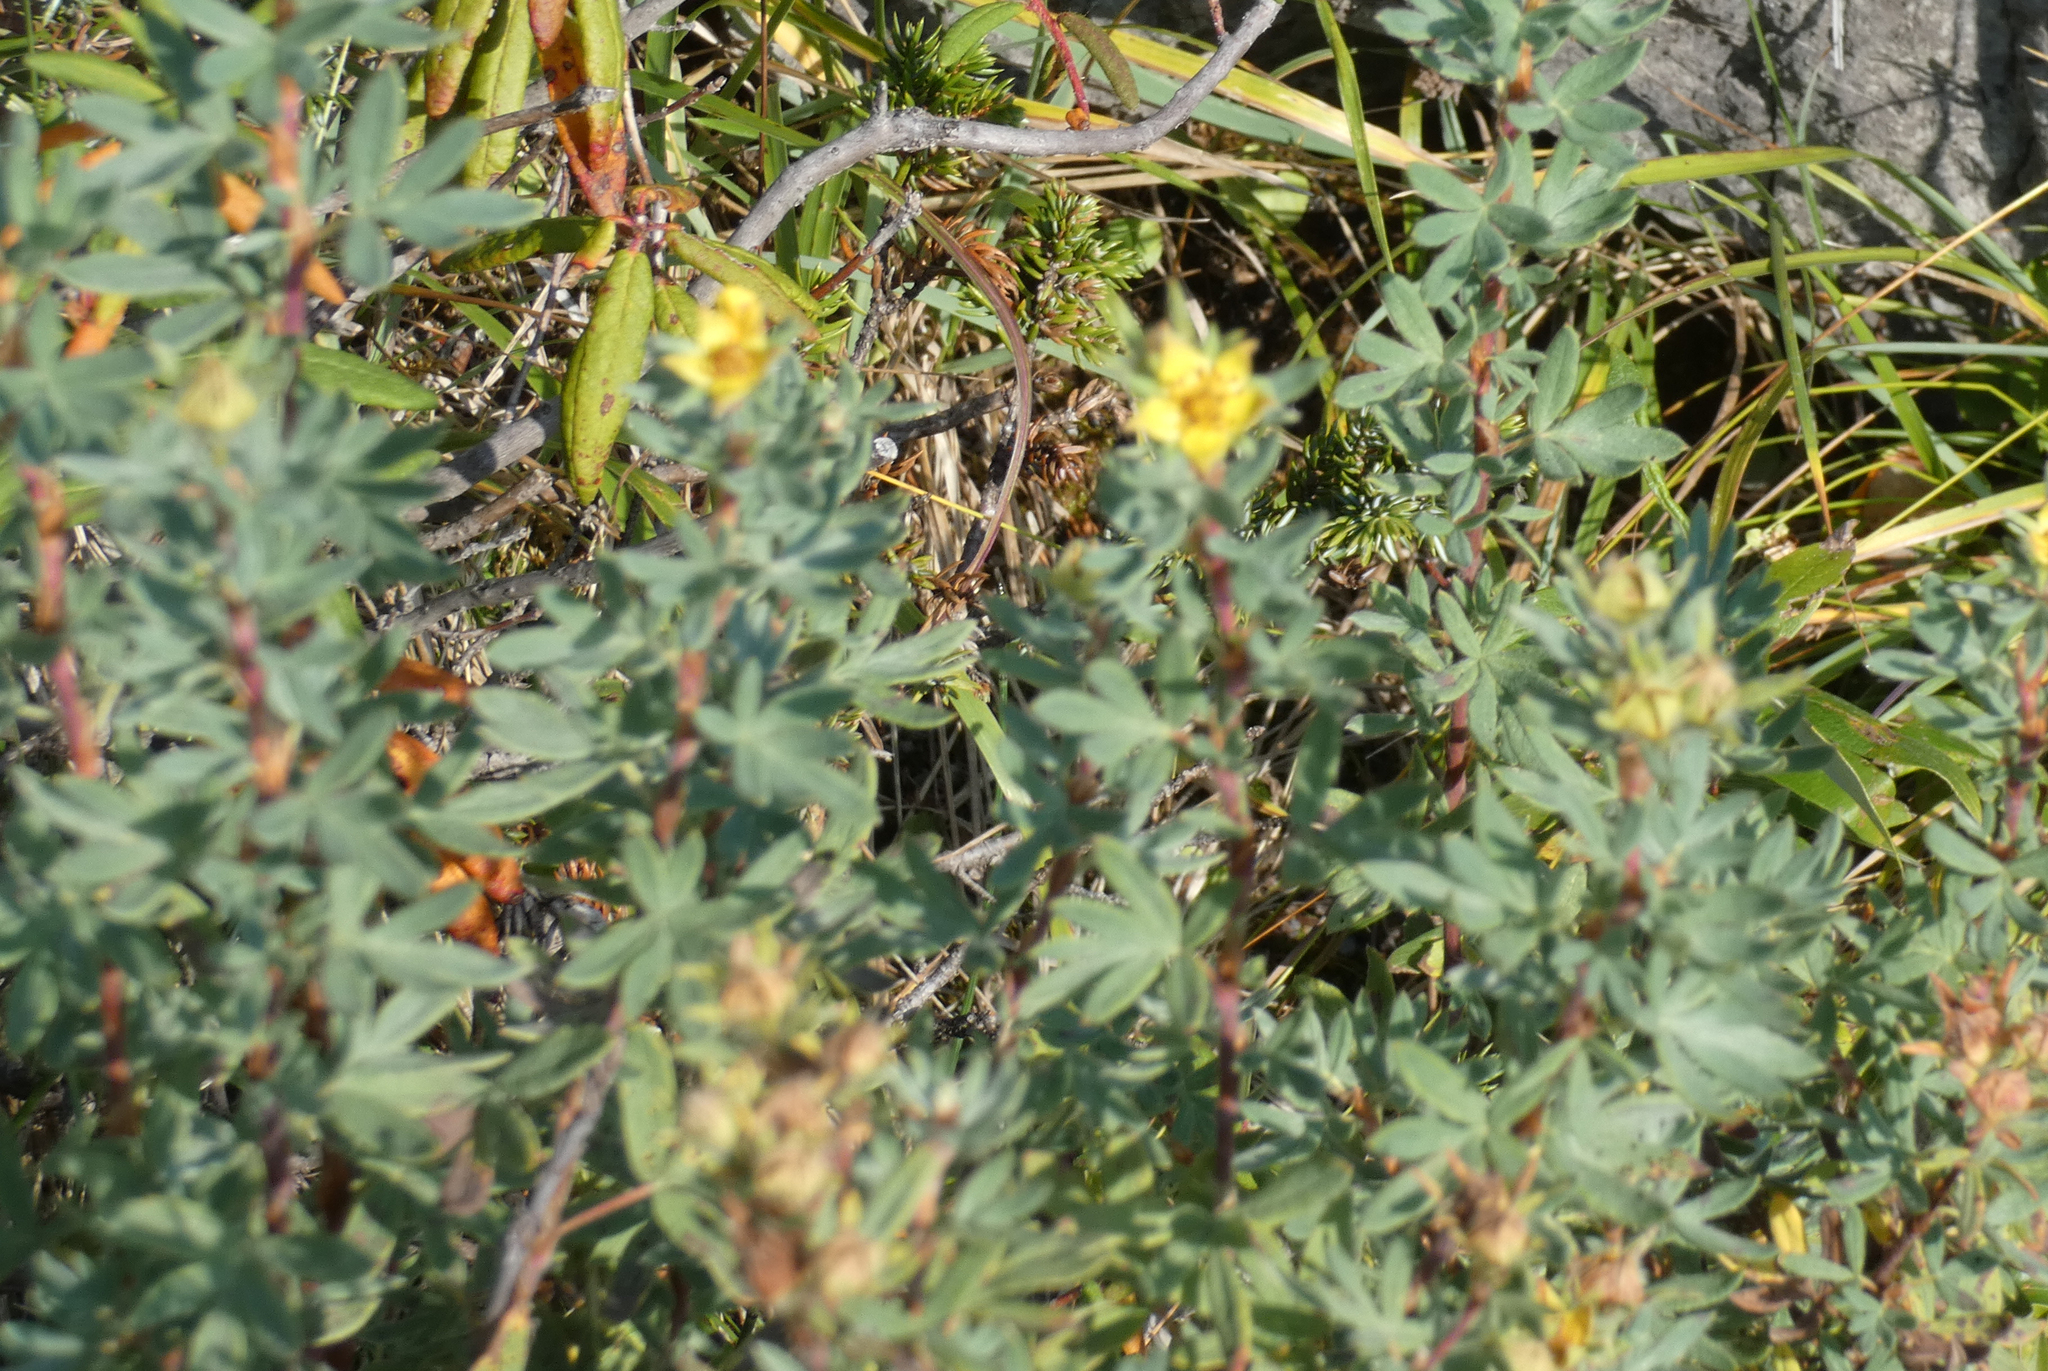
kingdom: Plantae
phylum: Tracheophyta
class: Magnoliopsida
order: Rosales
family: Rosaceae
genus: Dasiphora
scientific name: Dasiphora fruticosa
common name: Shrubby cinquefoil
